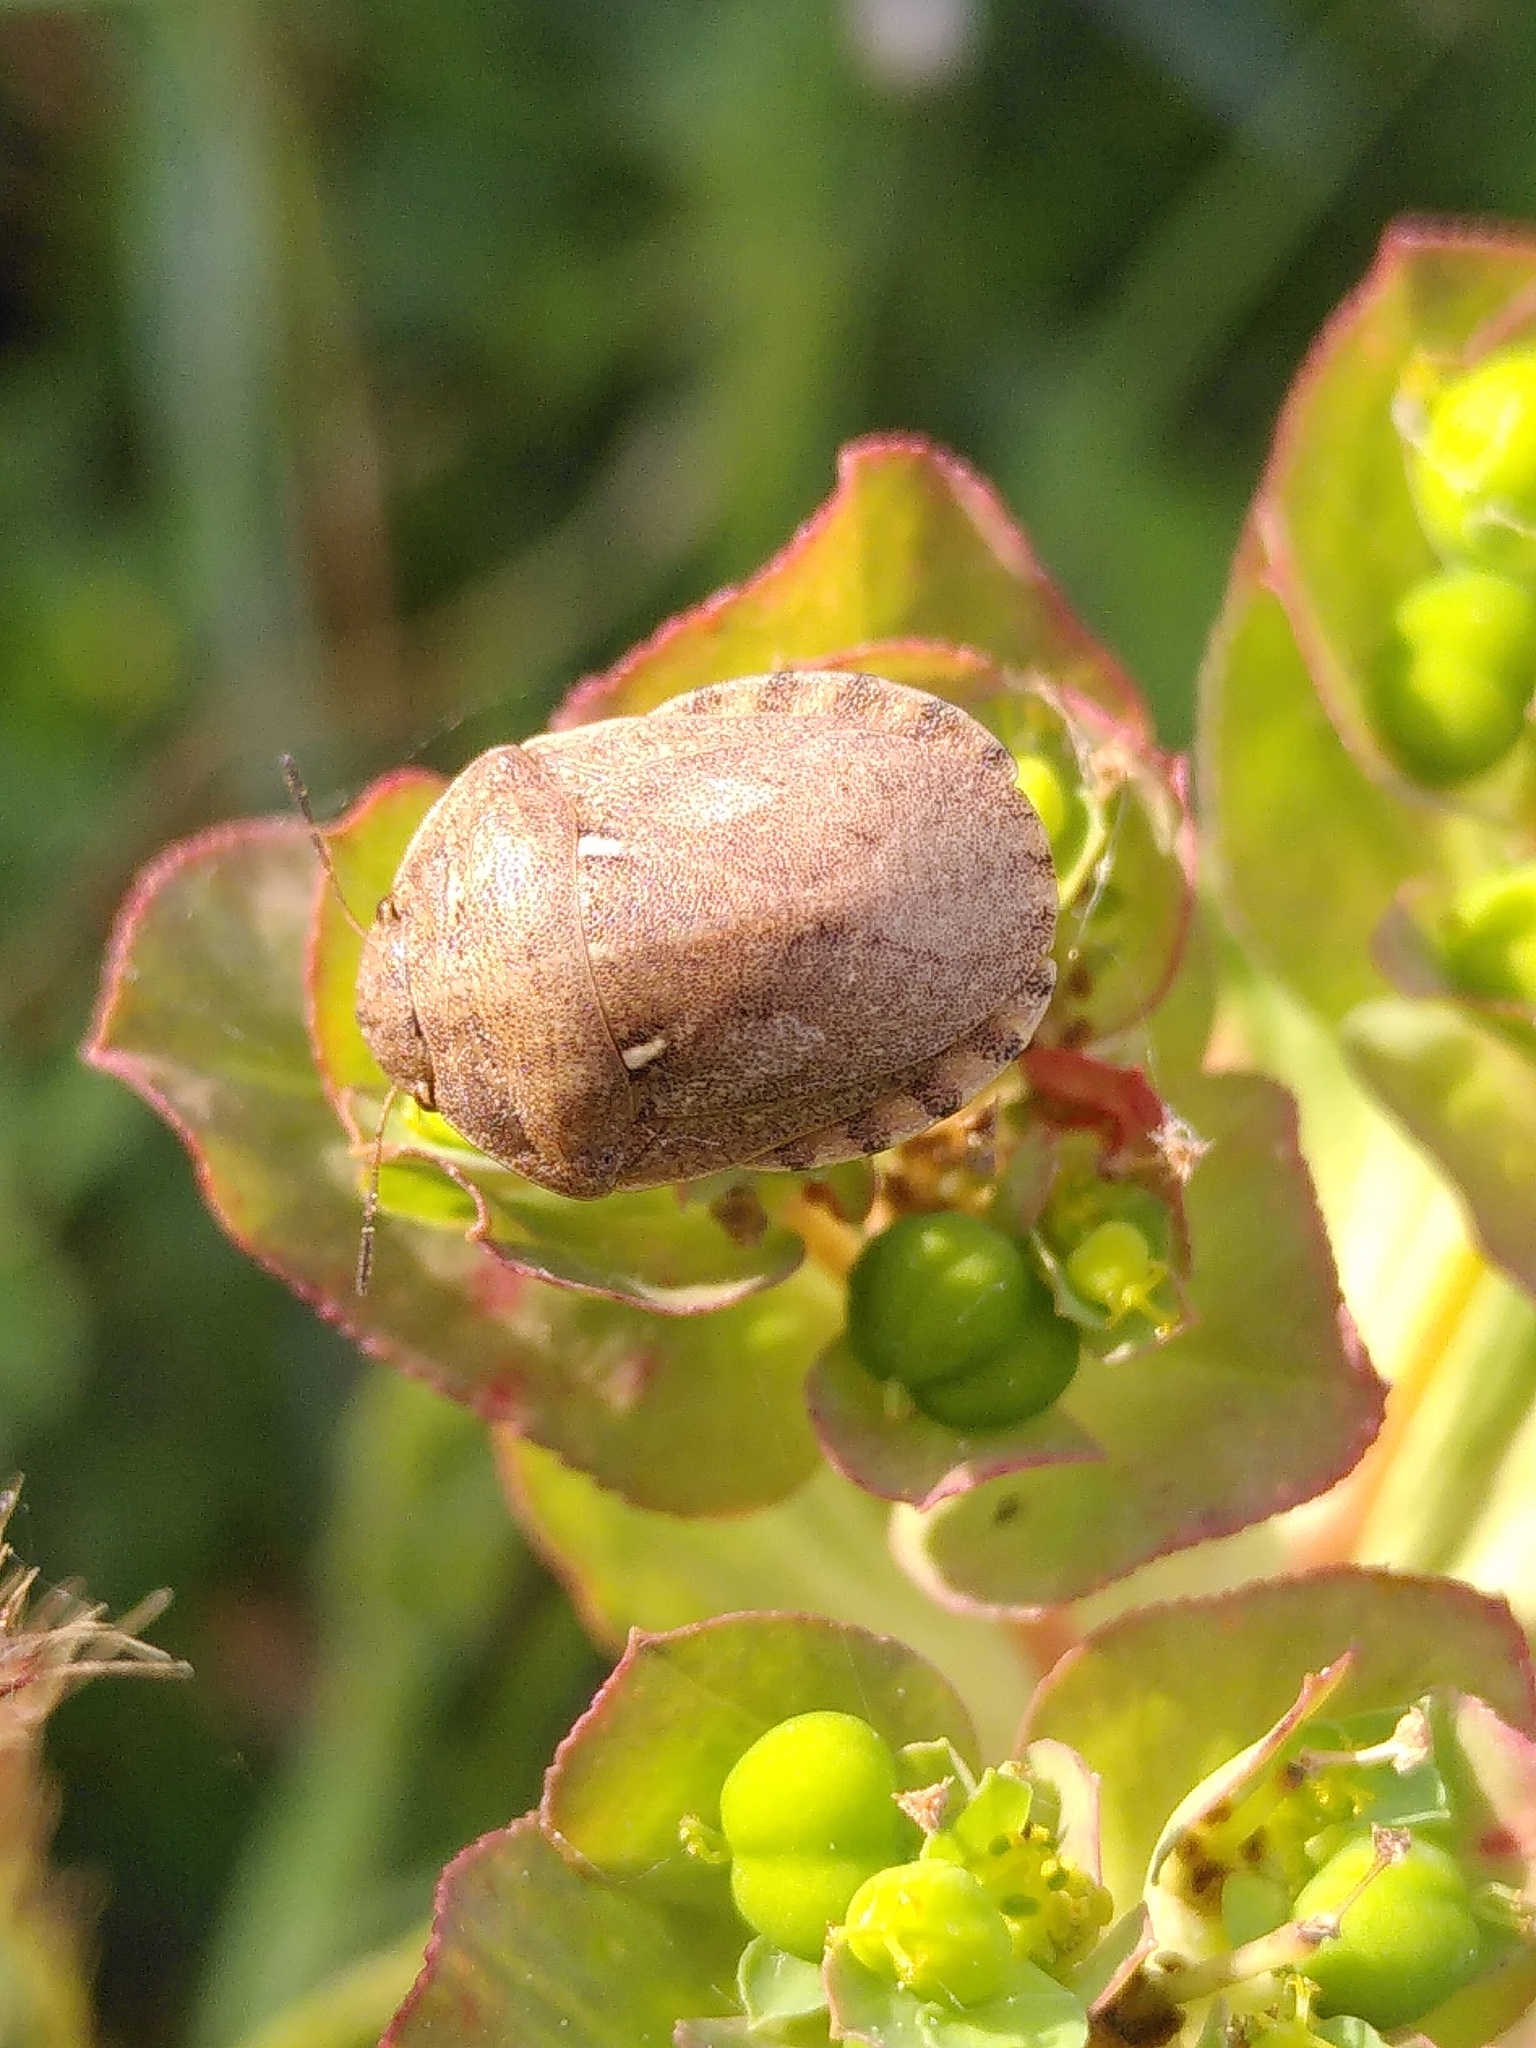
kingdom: Animalia
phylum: Arthropoda
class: Insecta
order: Hemiptera
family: Scutelleridae
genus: Eurygaster
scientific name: Eurygaster maura
